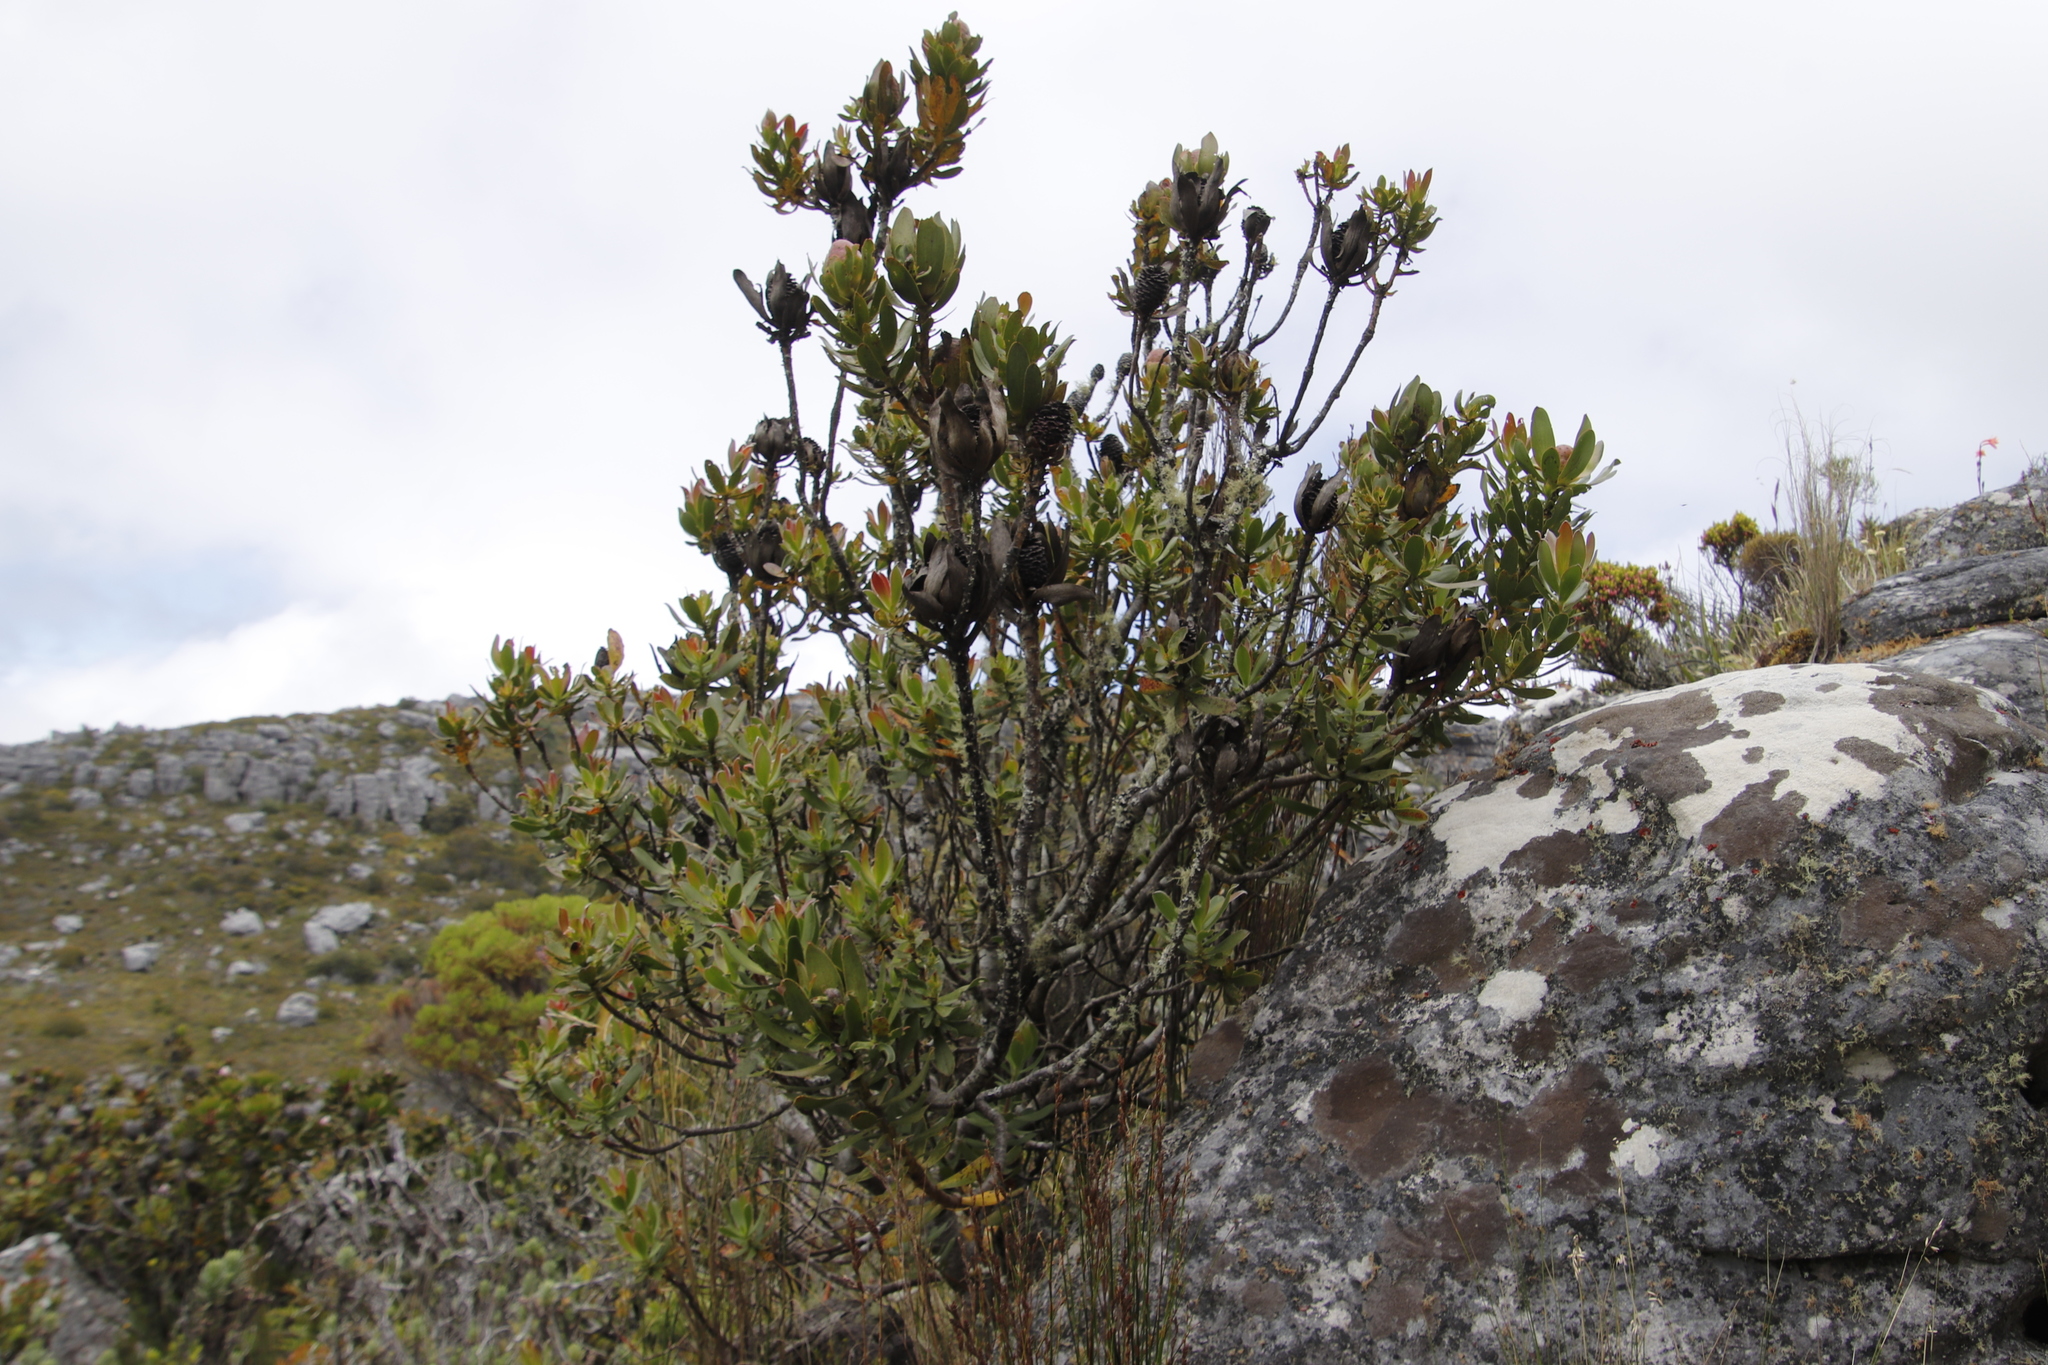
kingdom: Plantae
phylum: Tracheophyta
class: Magnoliopsida
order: Proteales
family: Proteaceae
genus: Leucadendron
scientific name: Leucadendron strobilinum
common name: Mountain rose
